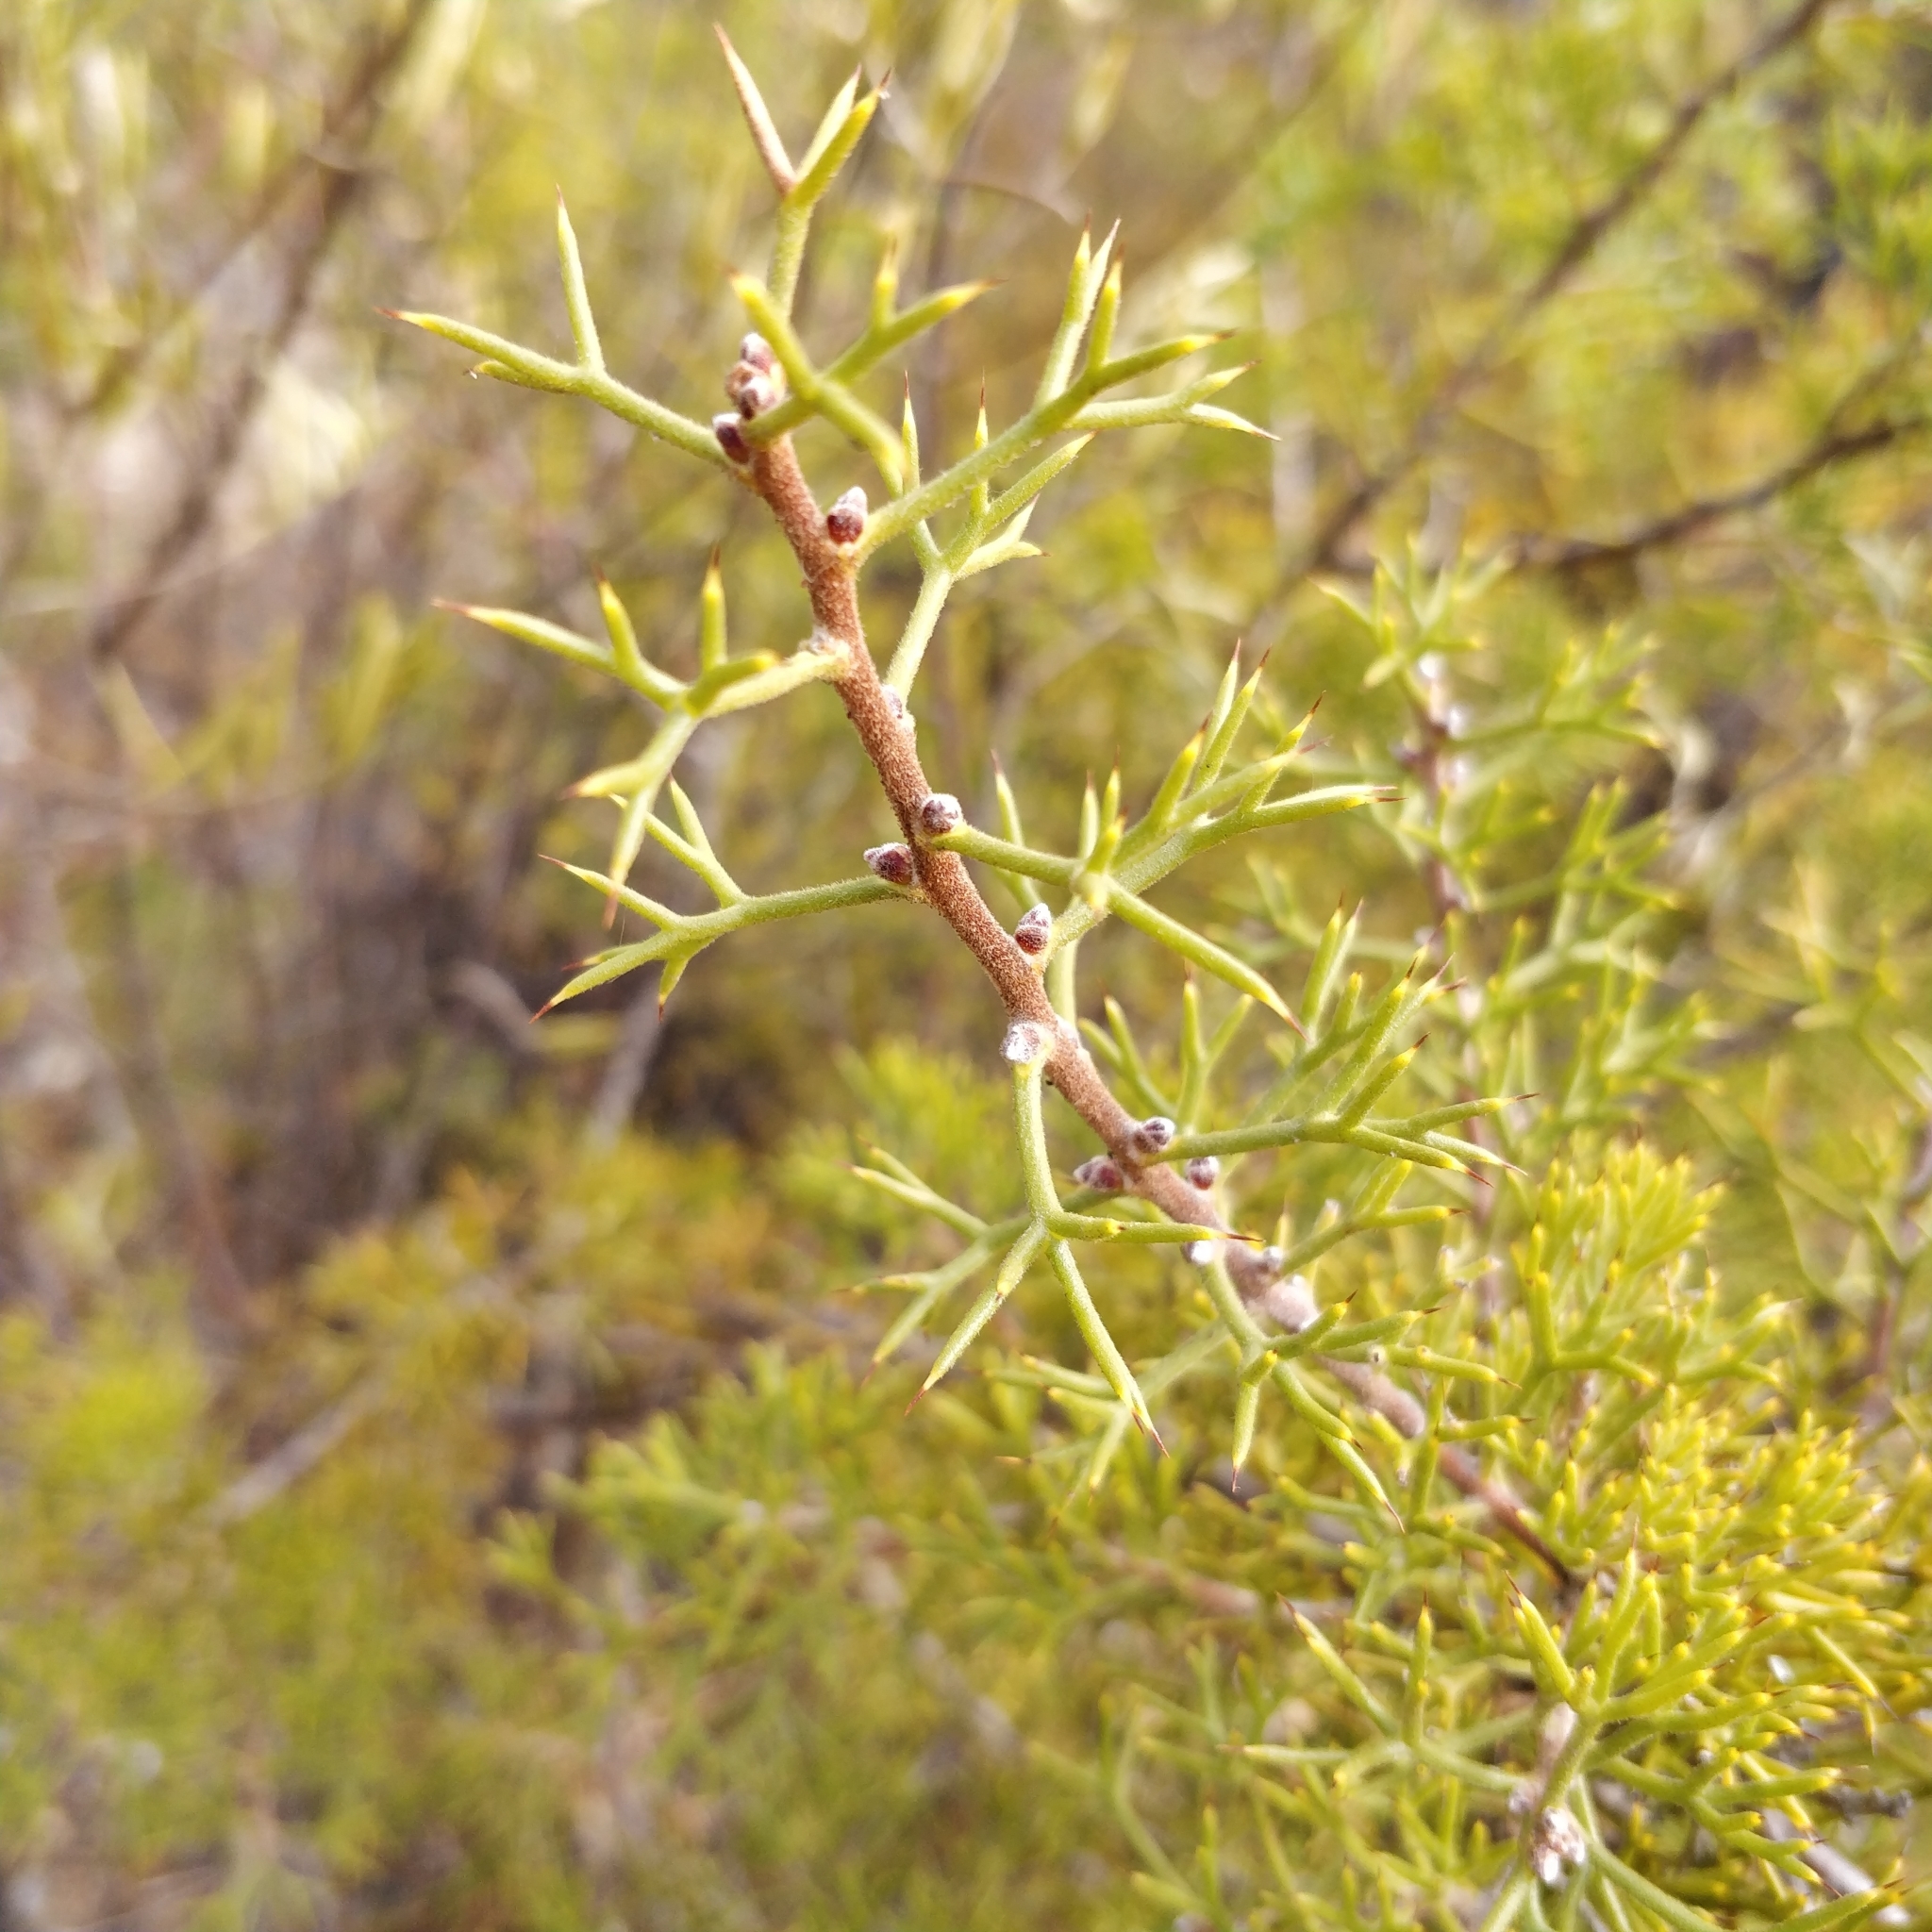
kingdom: Plantae
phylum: Tracheophyta
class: Magnoliopsida
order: Proteales
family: Proteaceae
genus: Hakea
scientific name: Hakea erinacea
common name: Hedgehog hakea
